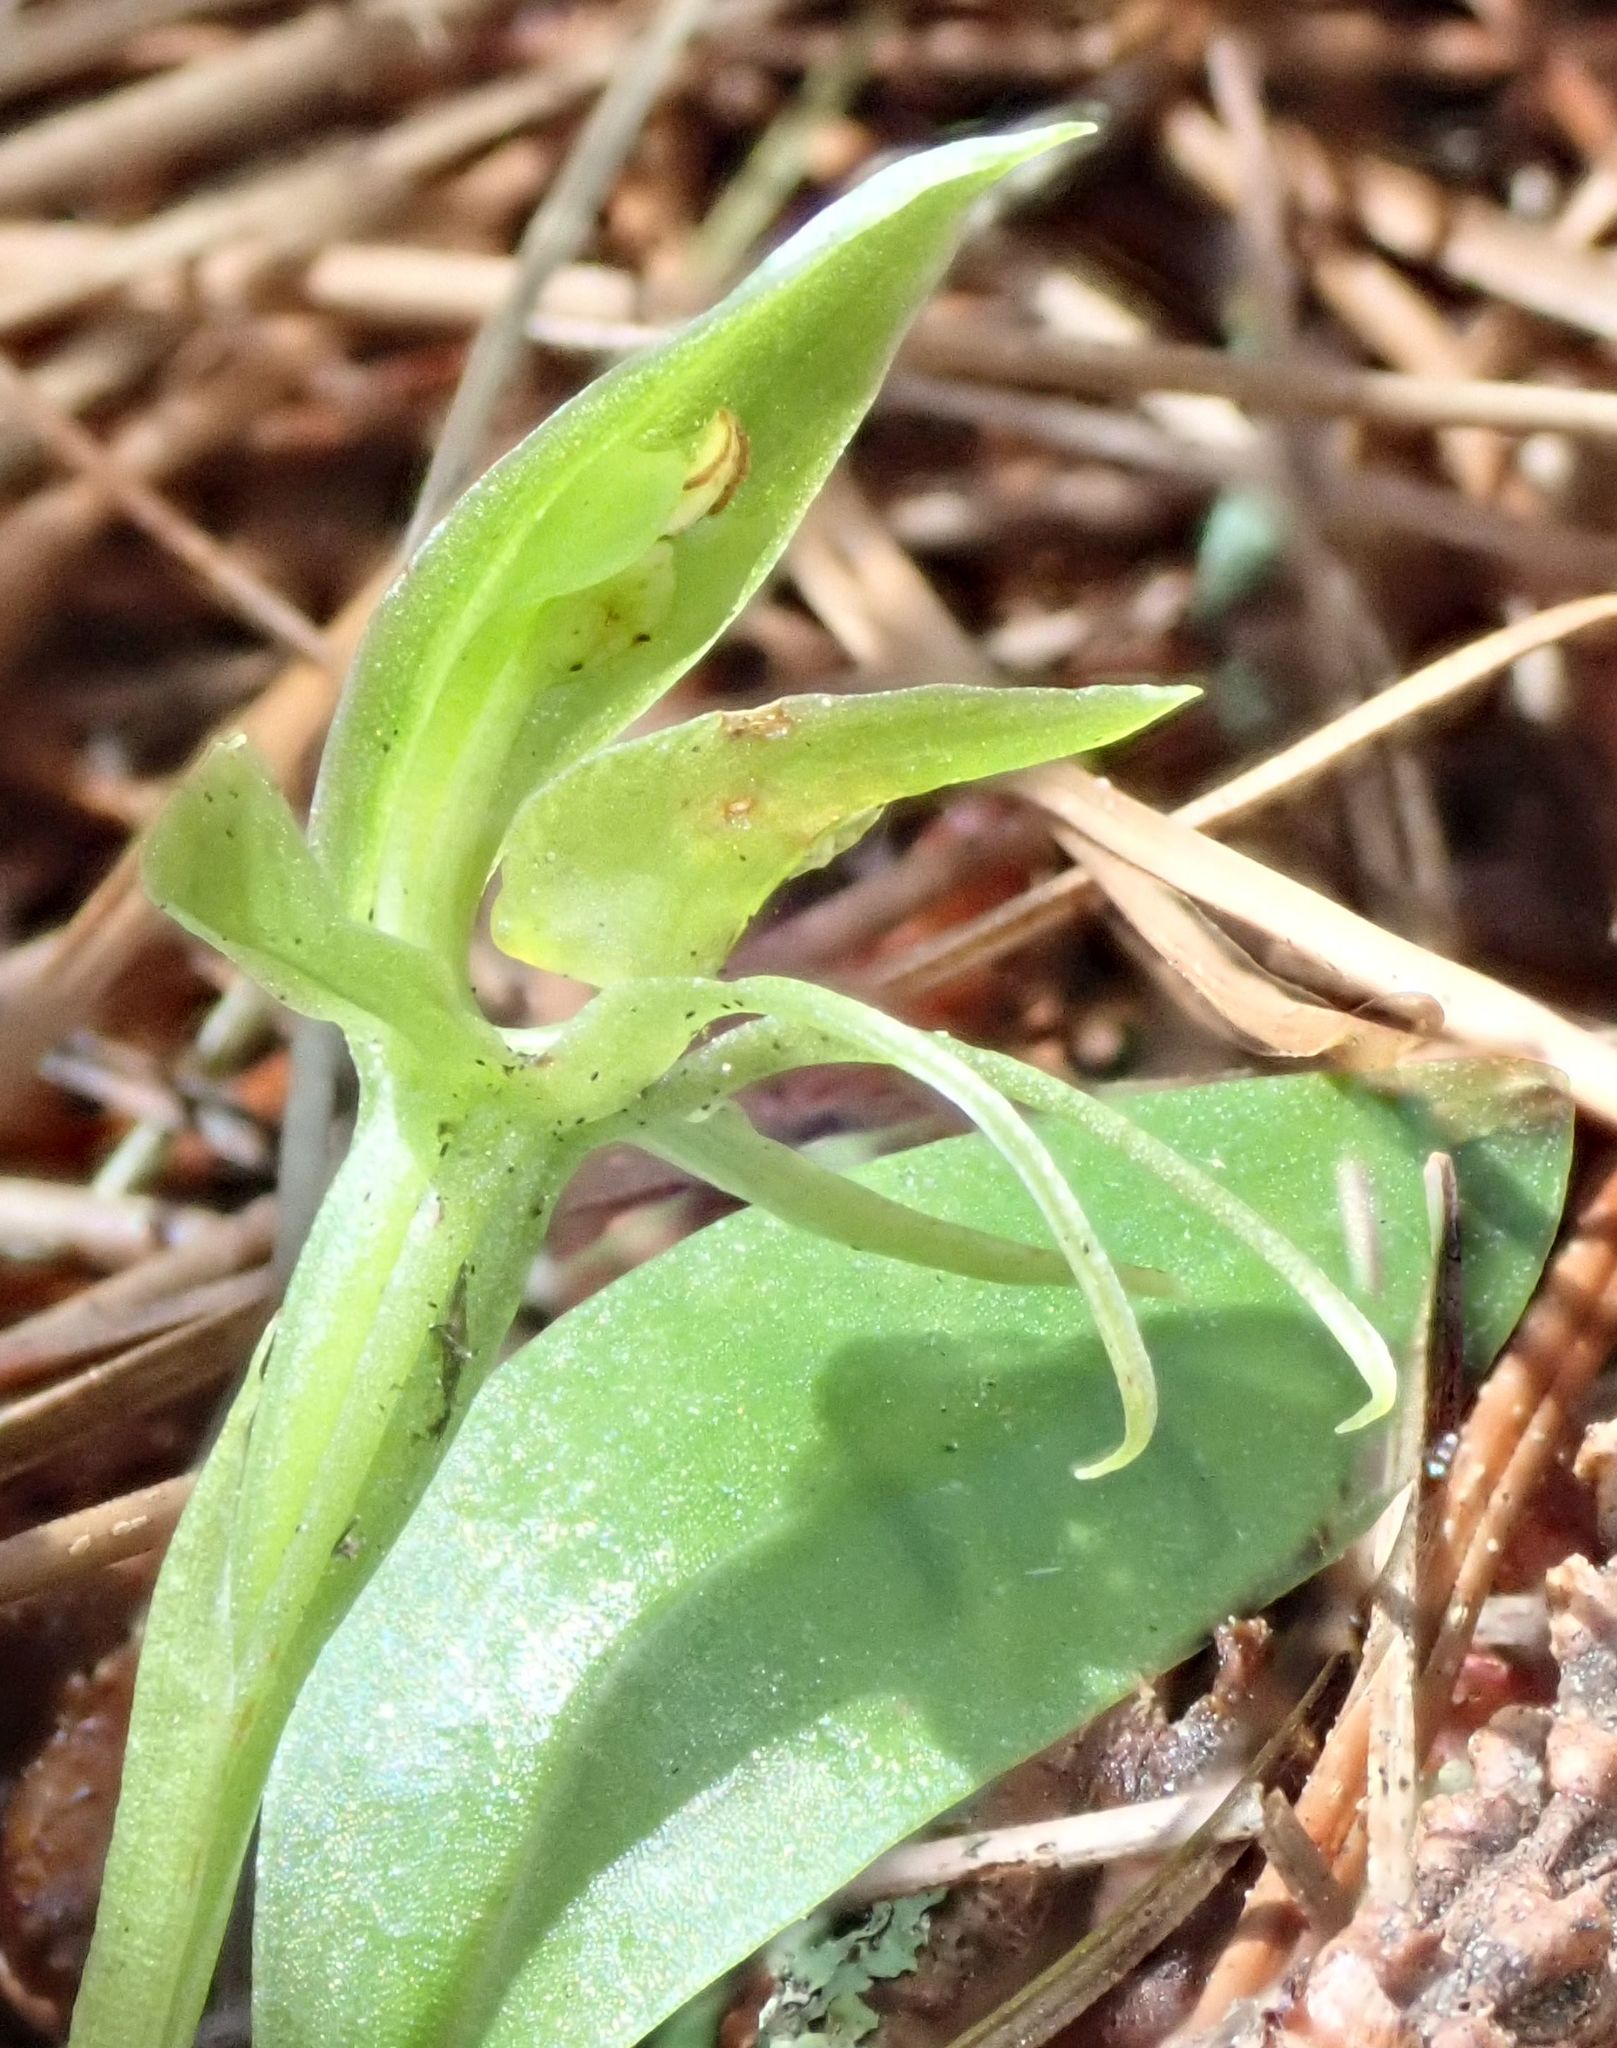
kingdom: Plantae
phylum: Tracheophyta
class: Liliopsida
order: Asparagales
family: Orchidaceae
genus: Chiloglottis
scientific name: Chiloglottis cornuta
